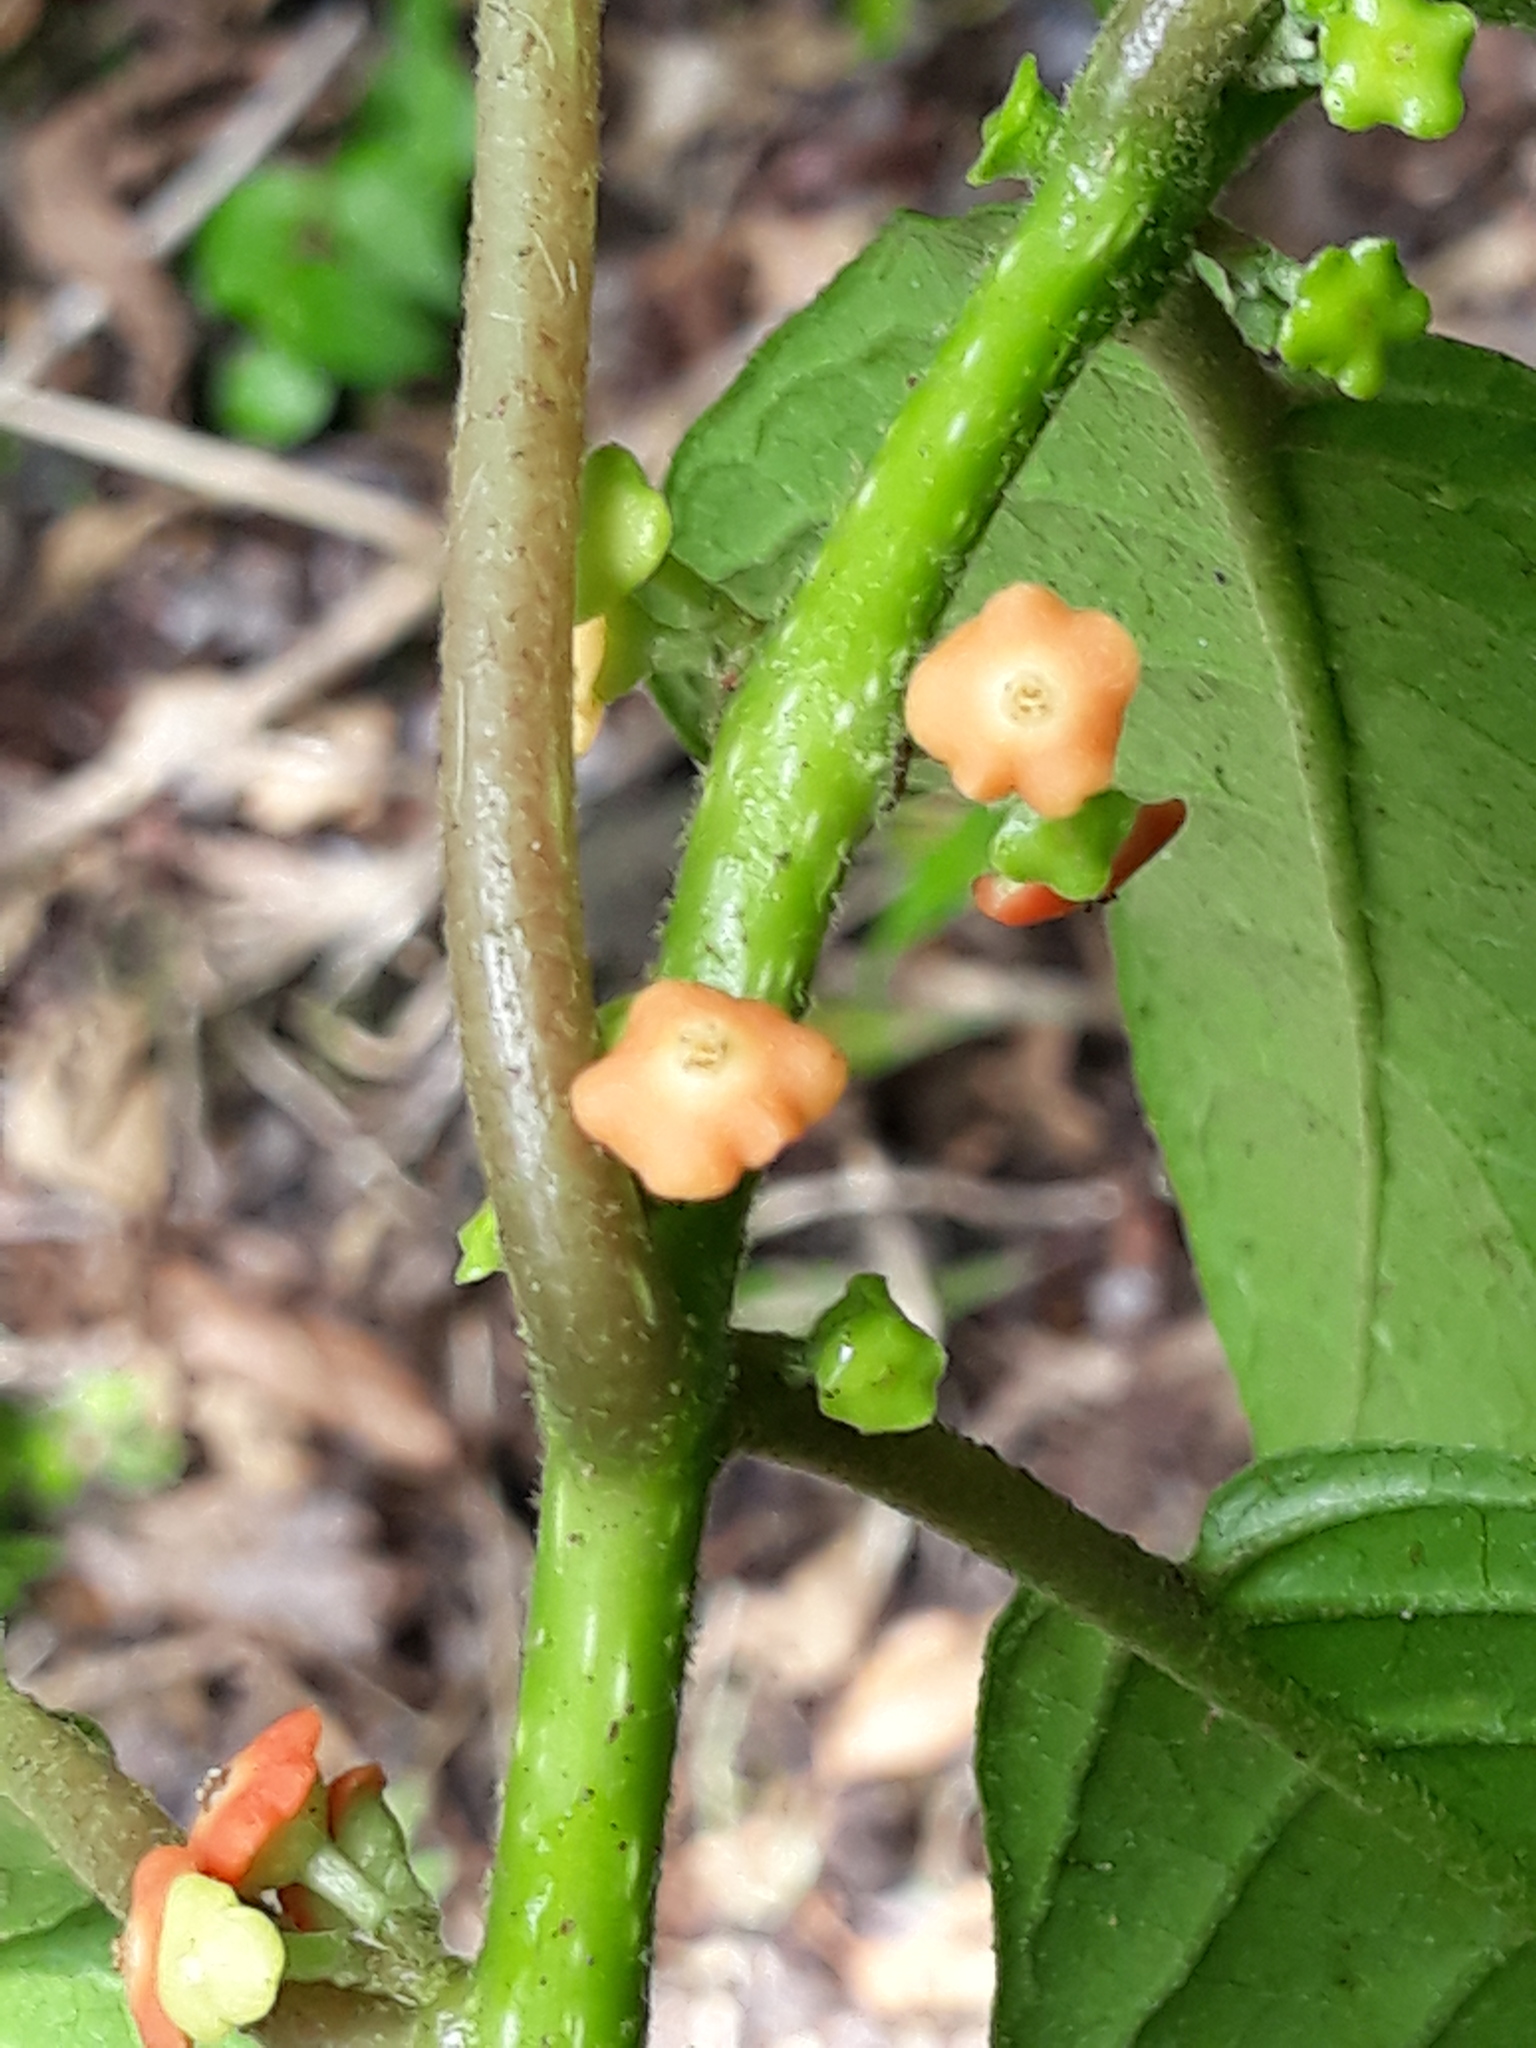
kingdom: Plantae
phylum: Tracheophyta
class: Magnoliopsida
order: Laurales
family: Siparunaceae
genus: Siparuna
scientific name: Siparuna thecaphora
